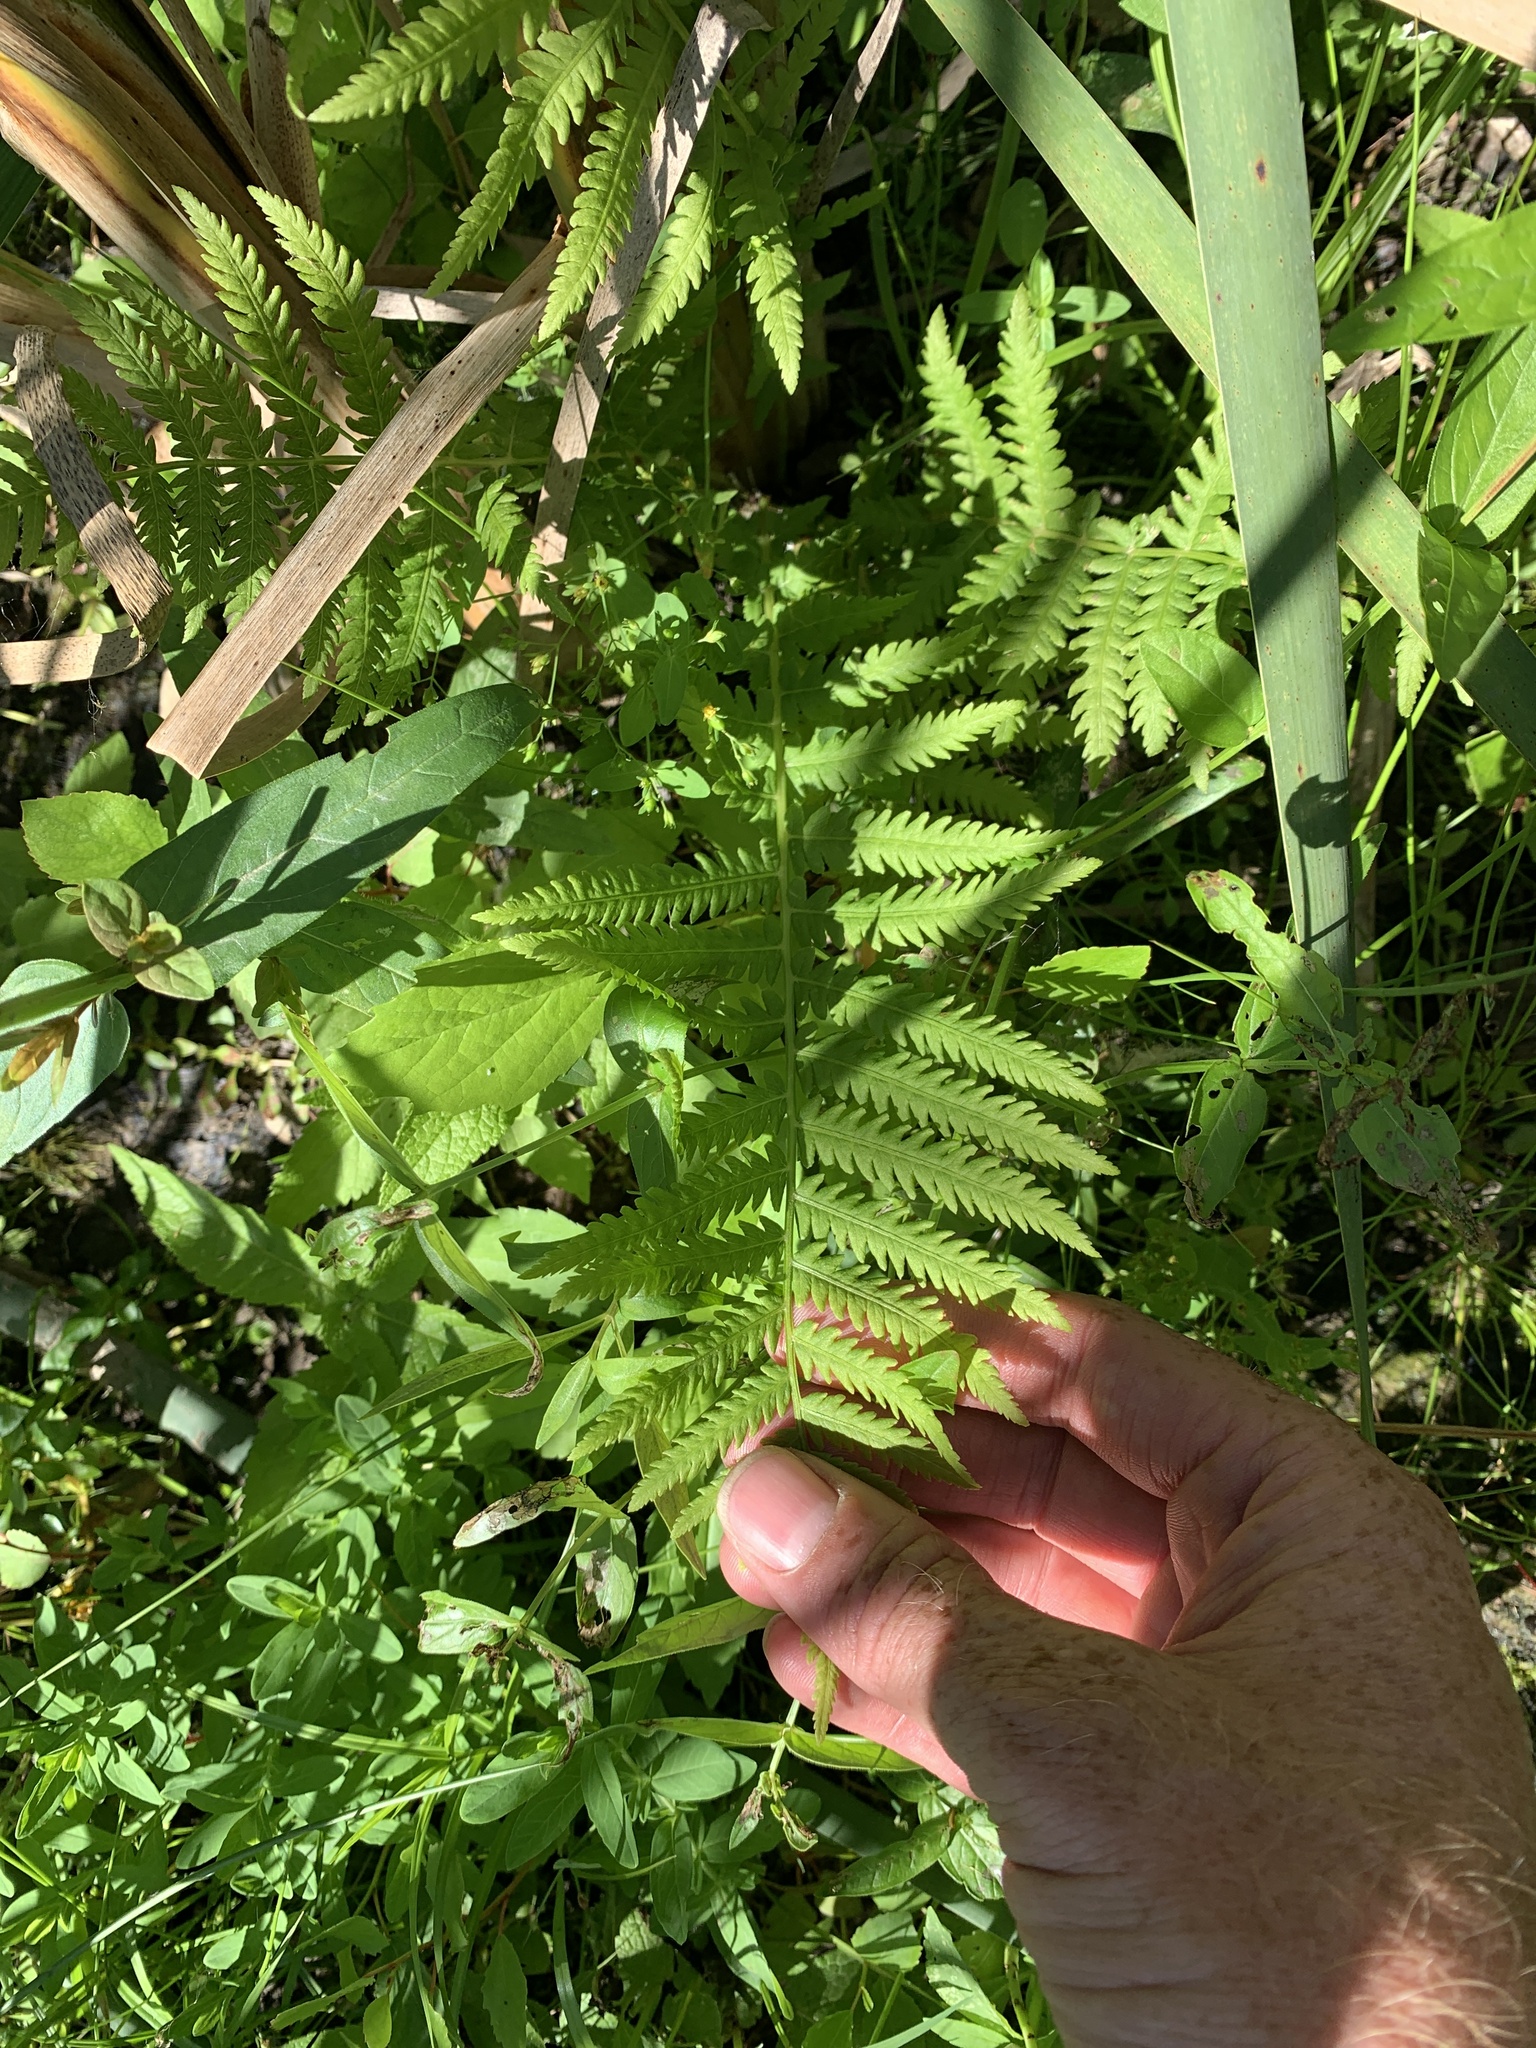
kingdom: Plantae
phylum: Tracheophyta
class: Polypodiopsida
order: Polypodiales
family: Onocleaceae
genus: Matteuccia
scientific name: Matteuccia struthiopteris
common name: Ostrich fern
